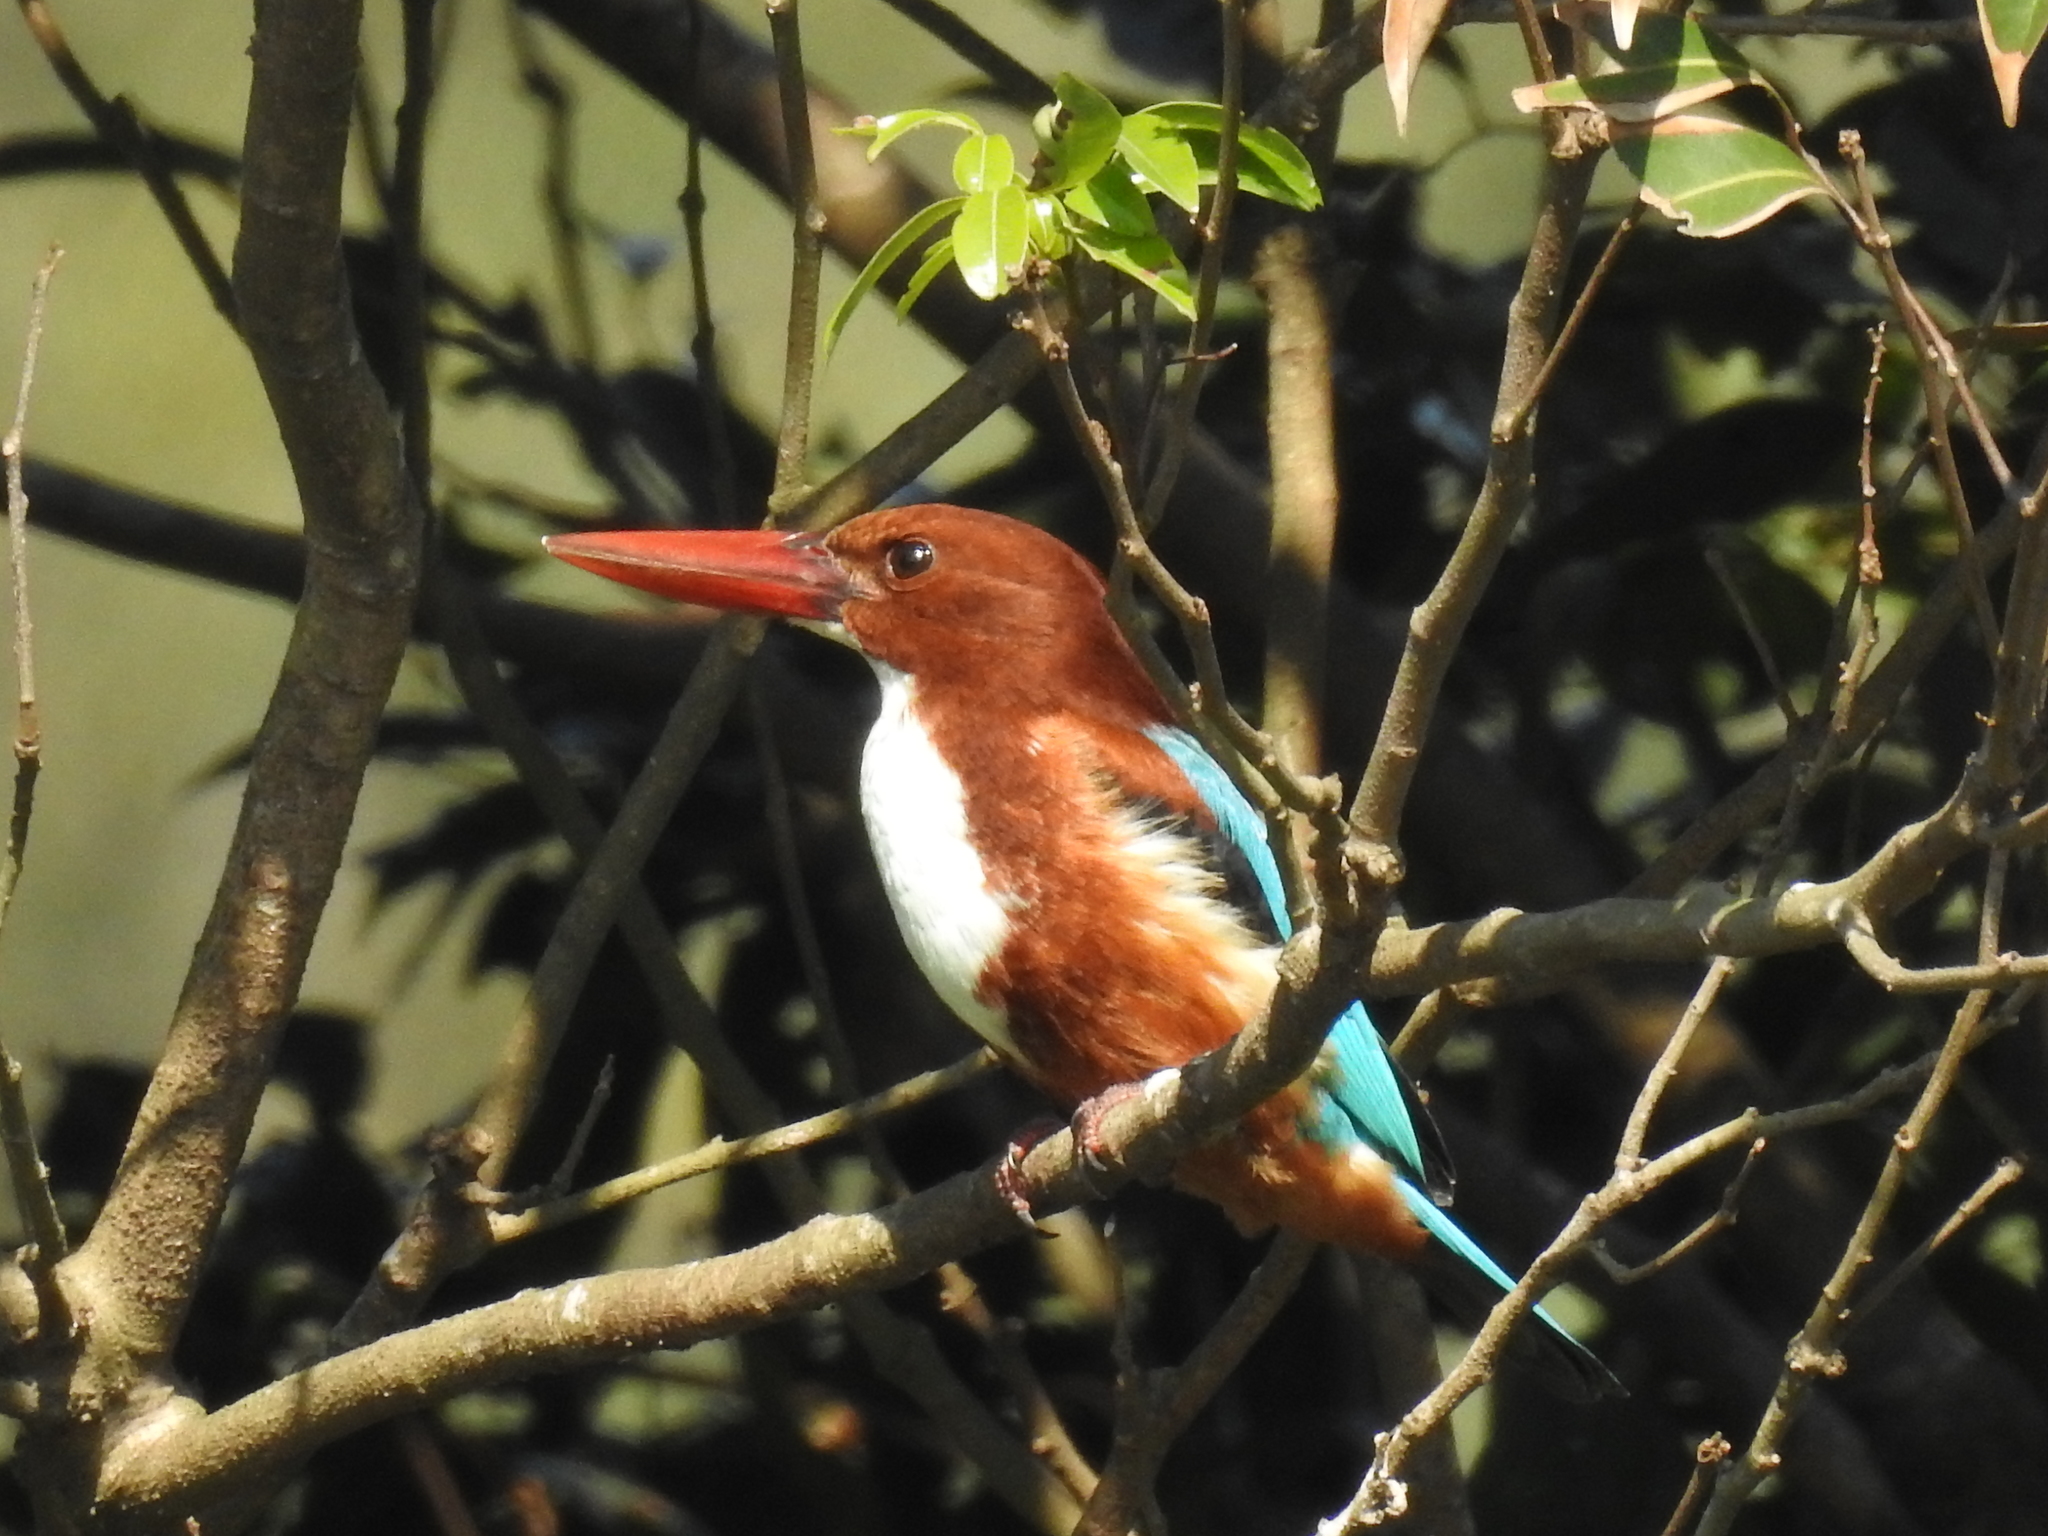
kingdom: Animalia
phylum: Chordata
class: Aves
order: Coraciiformes
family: Alcedinidae
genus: Halcyon
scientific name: Halcyon smyrnensis
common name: White-throated kingfisher
